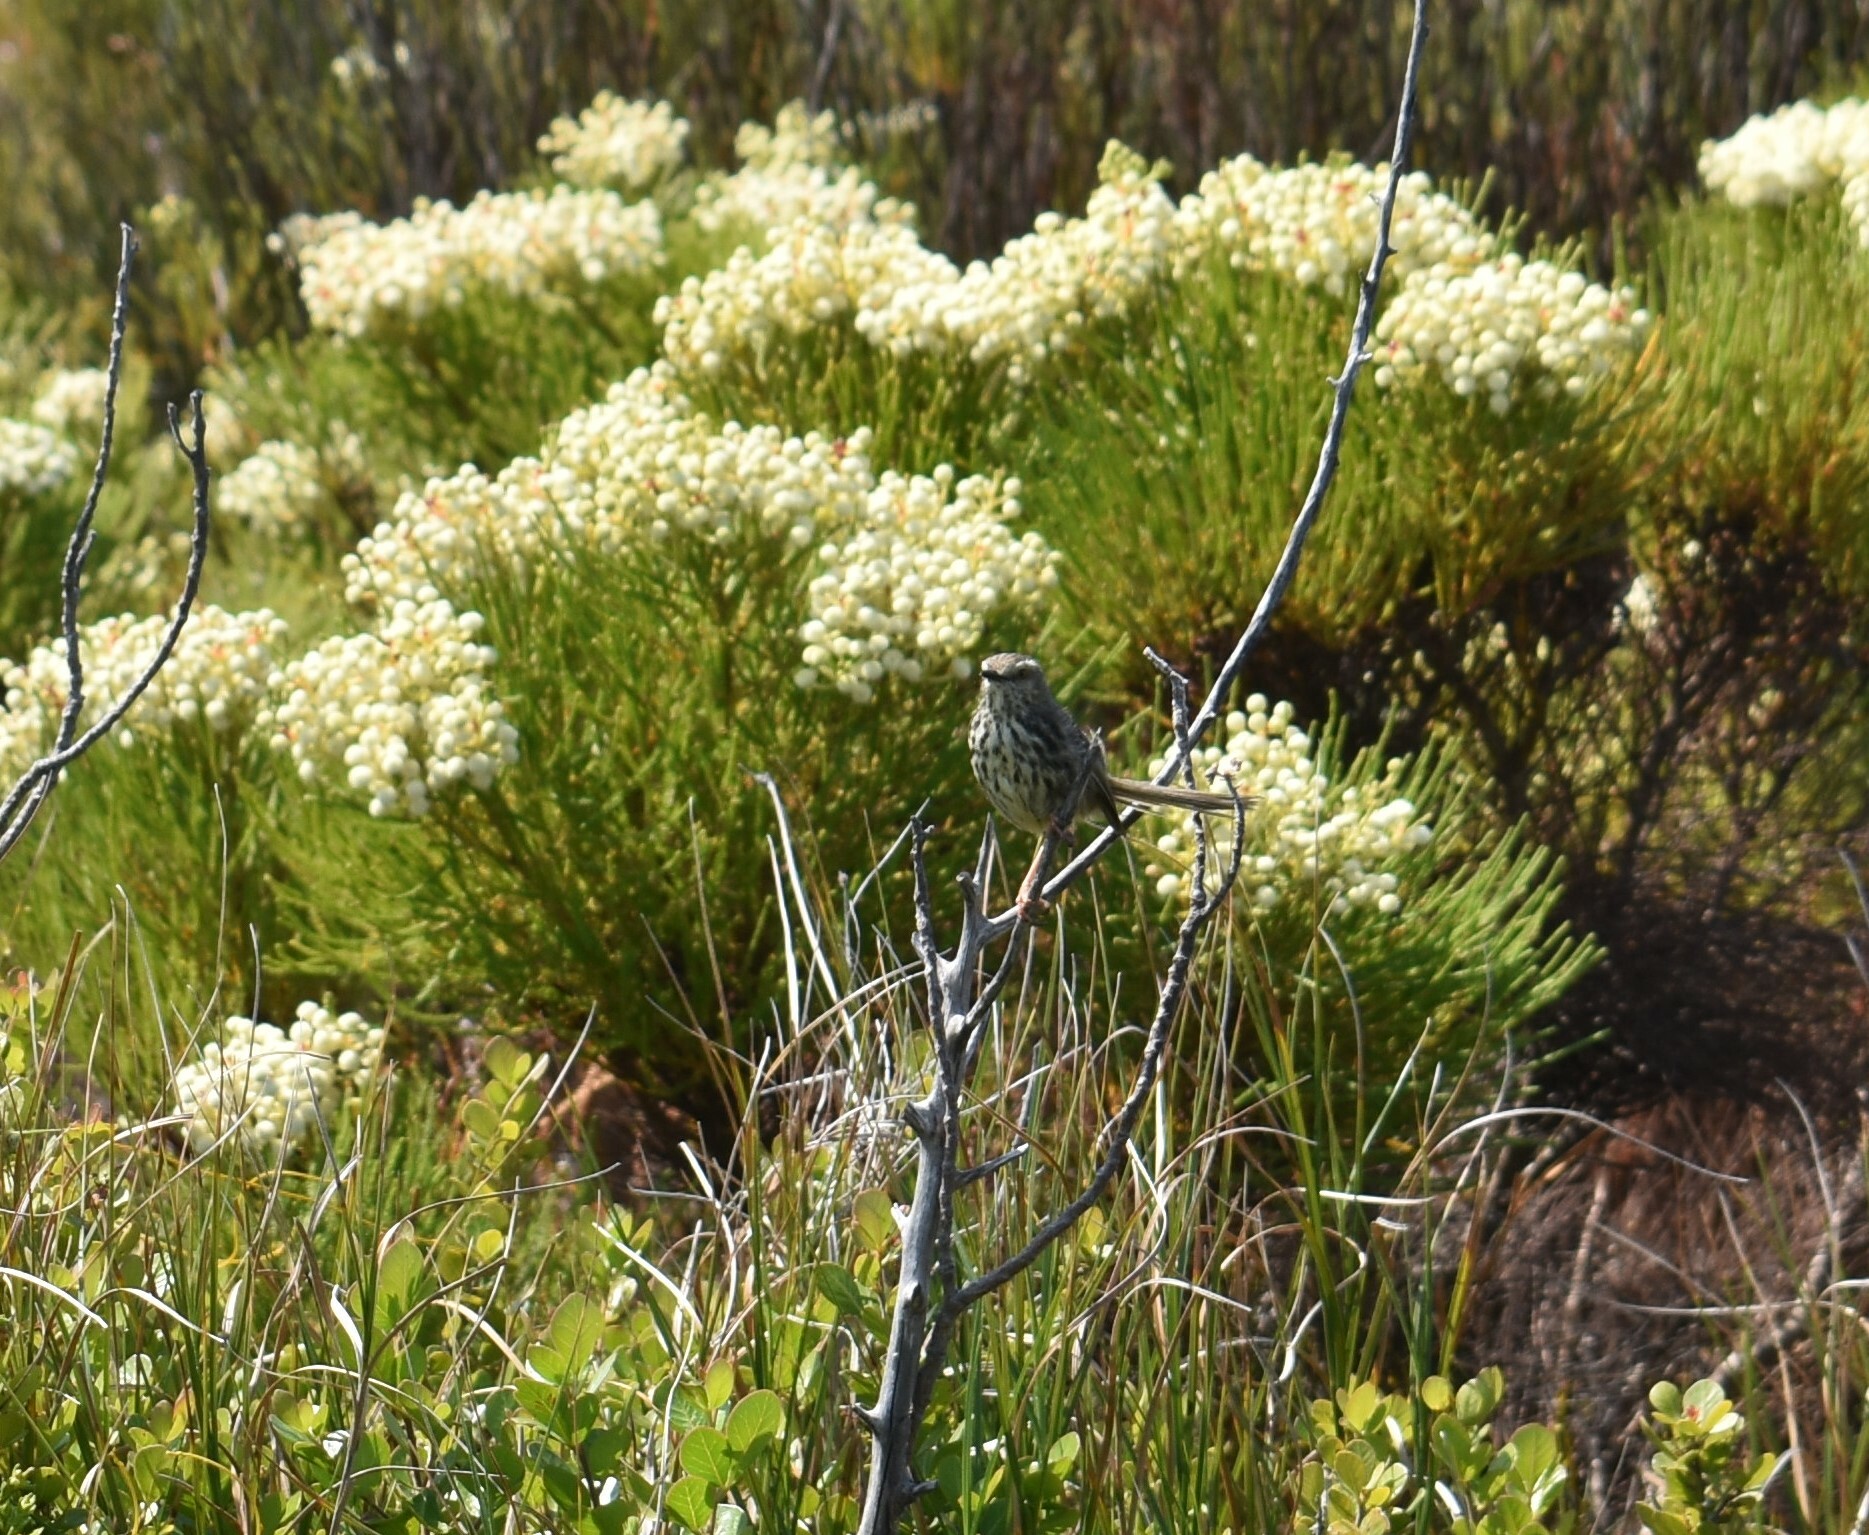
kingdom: Animalia
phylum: Chordata
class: Aves
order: Passeriformes
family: Cisticolidae
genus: Prinia
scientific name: Prinia maculosa
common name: Karoo prinia
